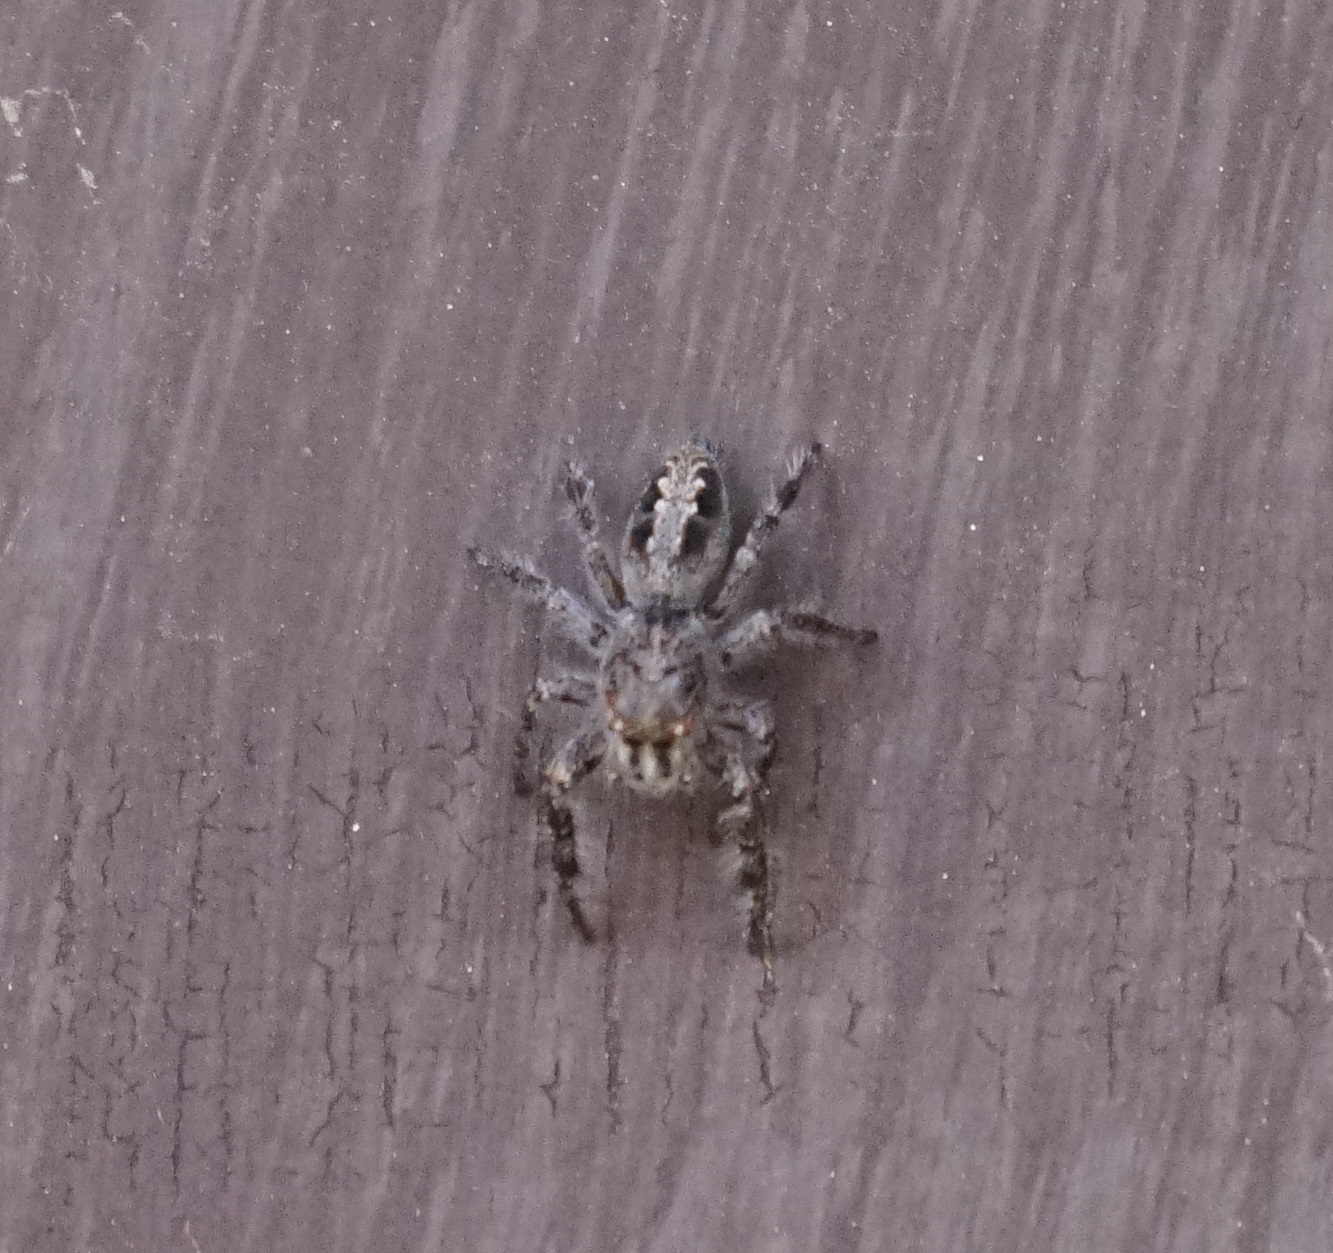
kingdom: Animalia
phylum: Arthropoda
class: Arachnida
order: Araneae
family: Salticidae
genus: Sandalodes
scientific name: Sandalodes superbus
